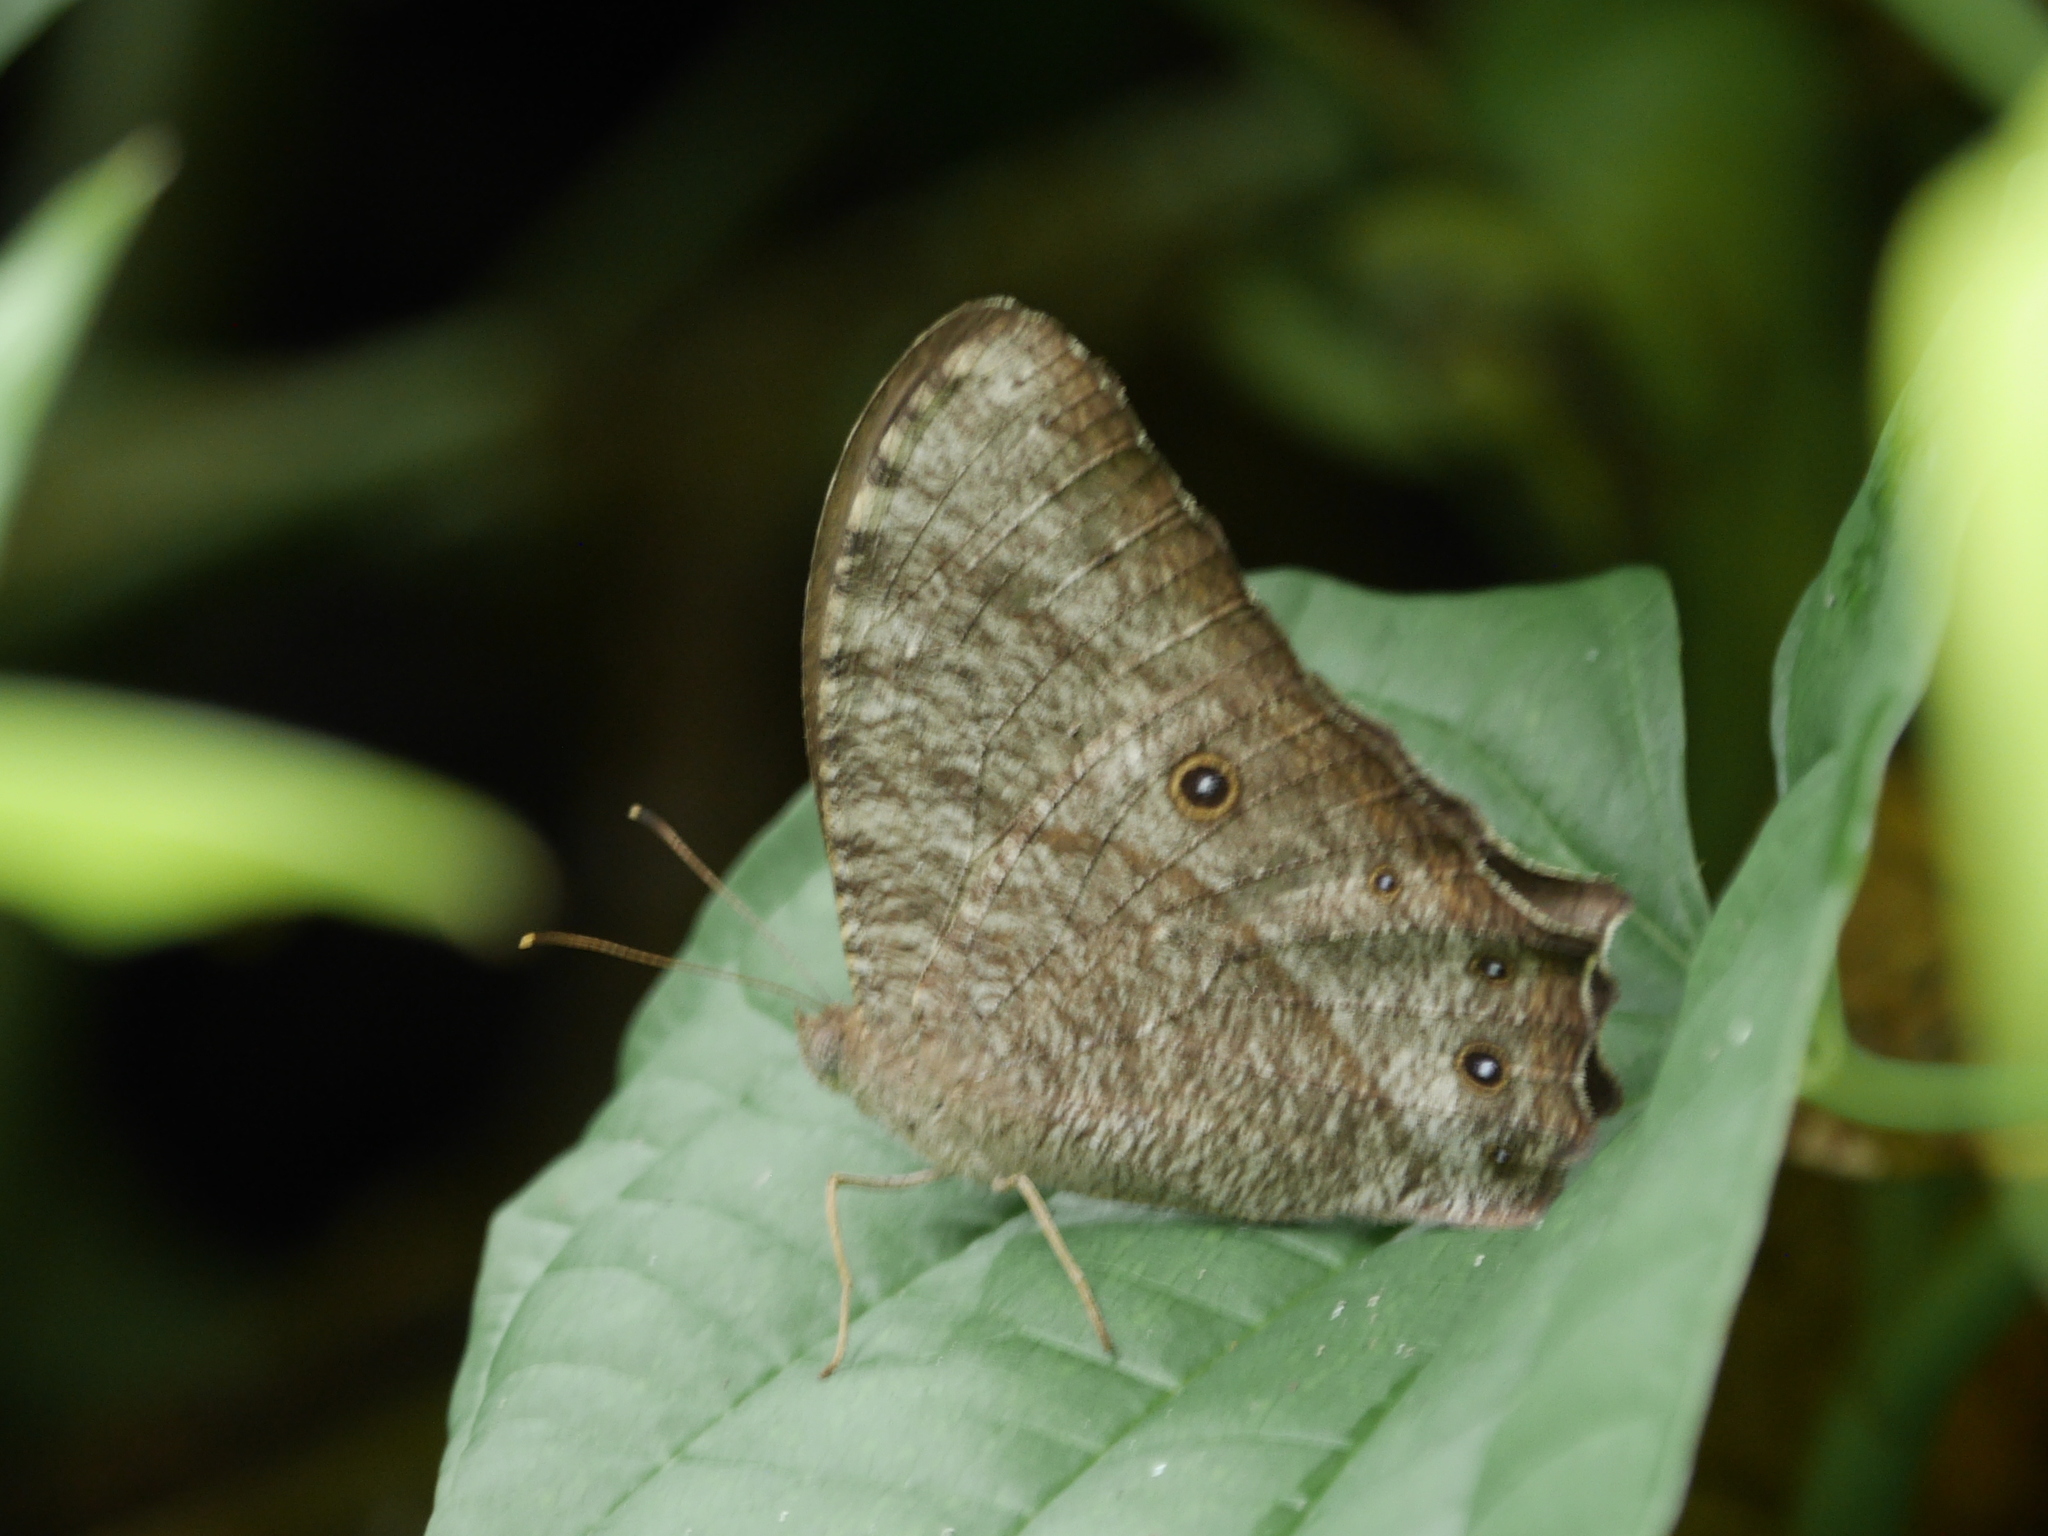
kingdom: Animalia
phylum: Arthropoda
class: Insecta
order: Lepidoptera
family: Nymphalidae
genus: Melanitis
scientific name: Melanitis leda
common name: Twilight brown
